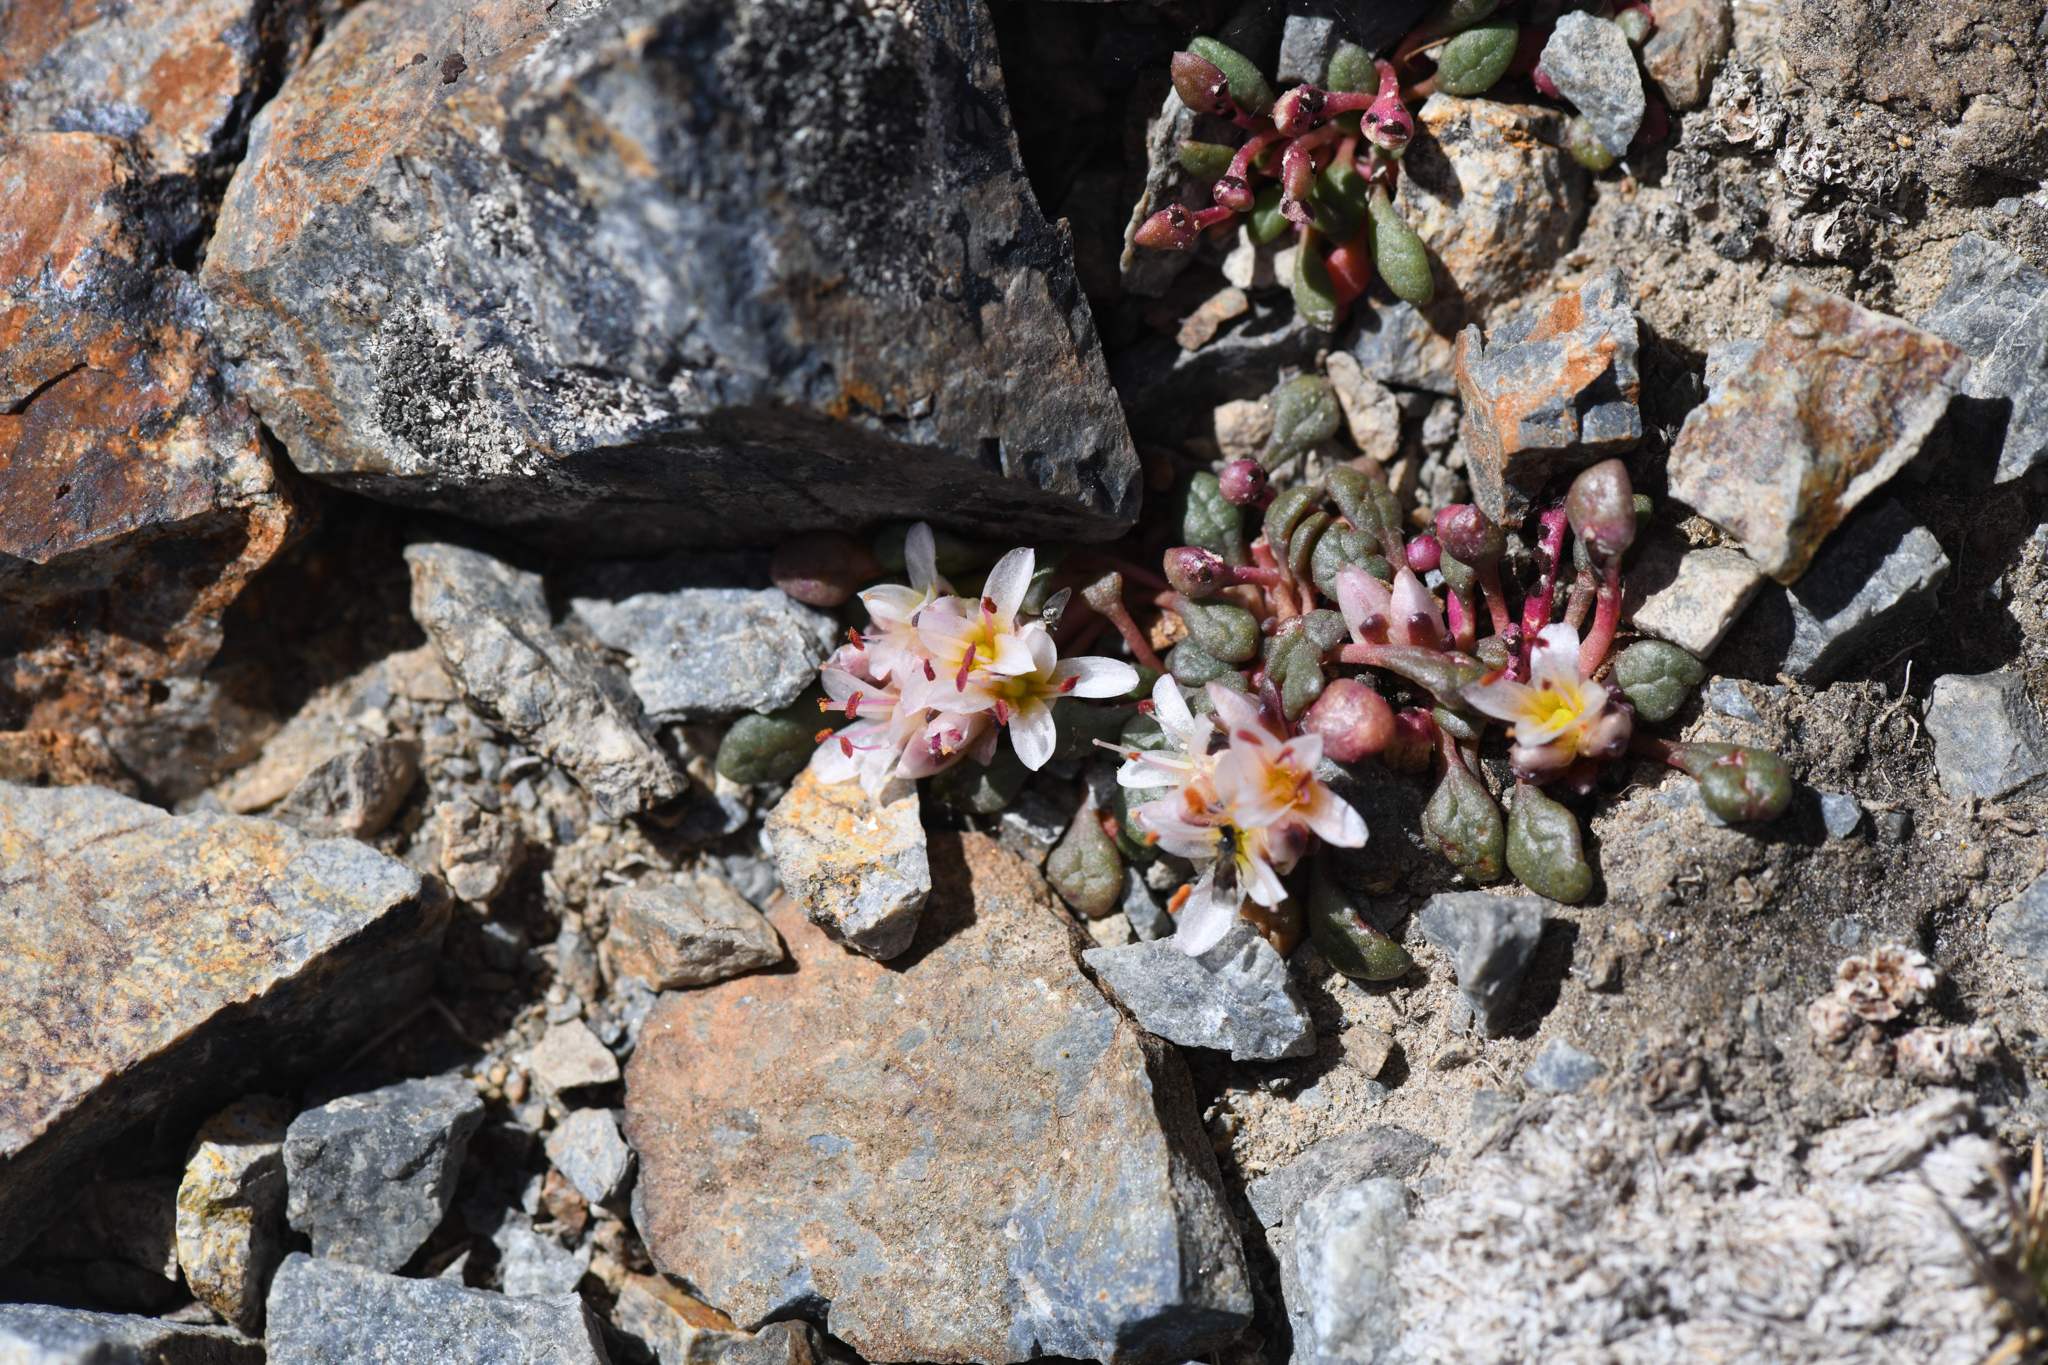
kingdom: Plantae
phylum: Tracheophyta
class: Magnoliopsida
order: Caryophyllales
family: Montiaceae
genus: Calyptridium
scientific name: Calyptridium umbellatum
